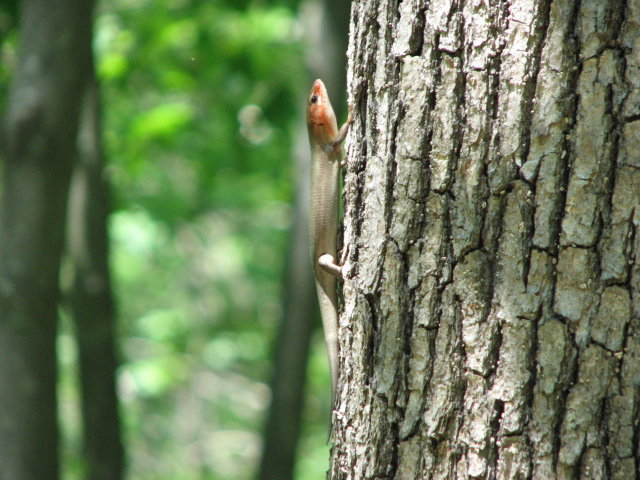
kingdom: Animalia
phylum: Chordata
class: Squamata
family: Scincidae
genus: Plestiodon
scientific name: Plestiodon laticeps
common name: Broadhead skink
